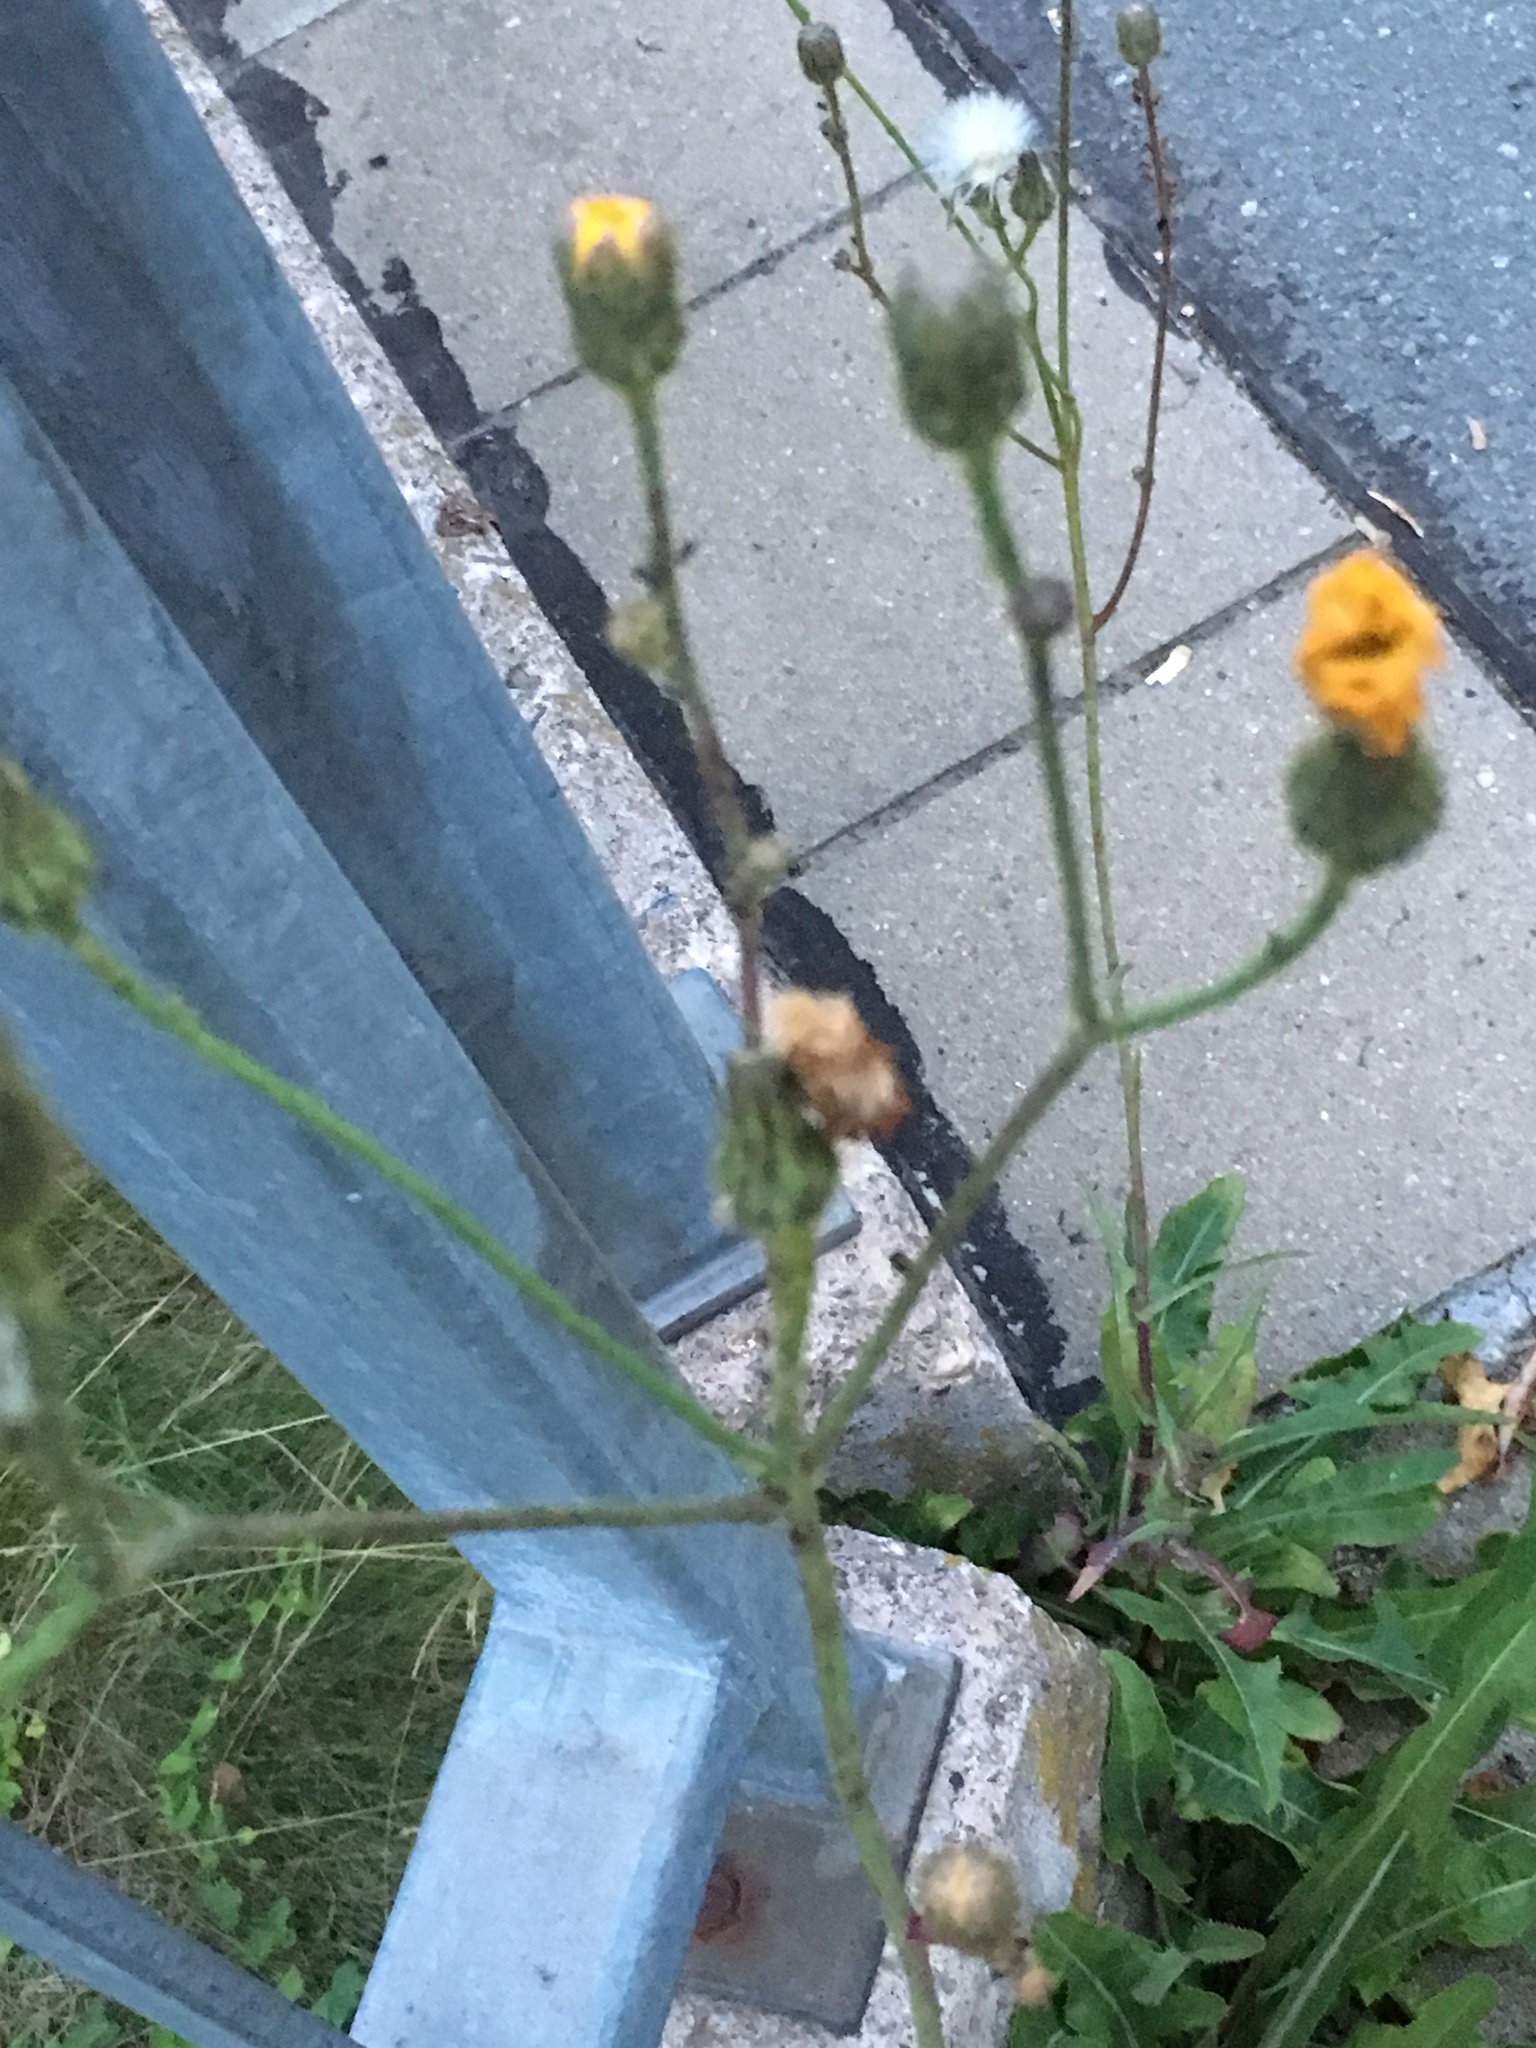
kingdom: Plantae
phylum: Tracheophyta
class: Magnoliopsida
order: Asterales
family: Asteraceae
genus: Sonchus
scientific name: Sonchus arvensis
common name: Perennial sow-thistle
